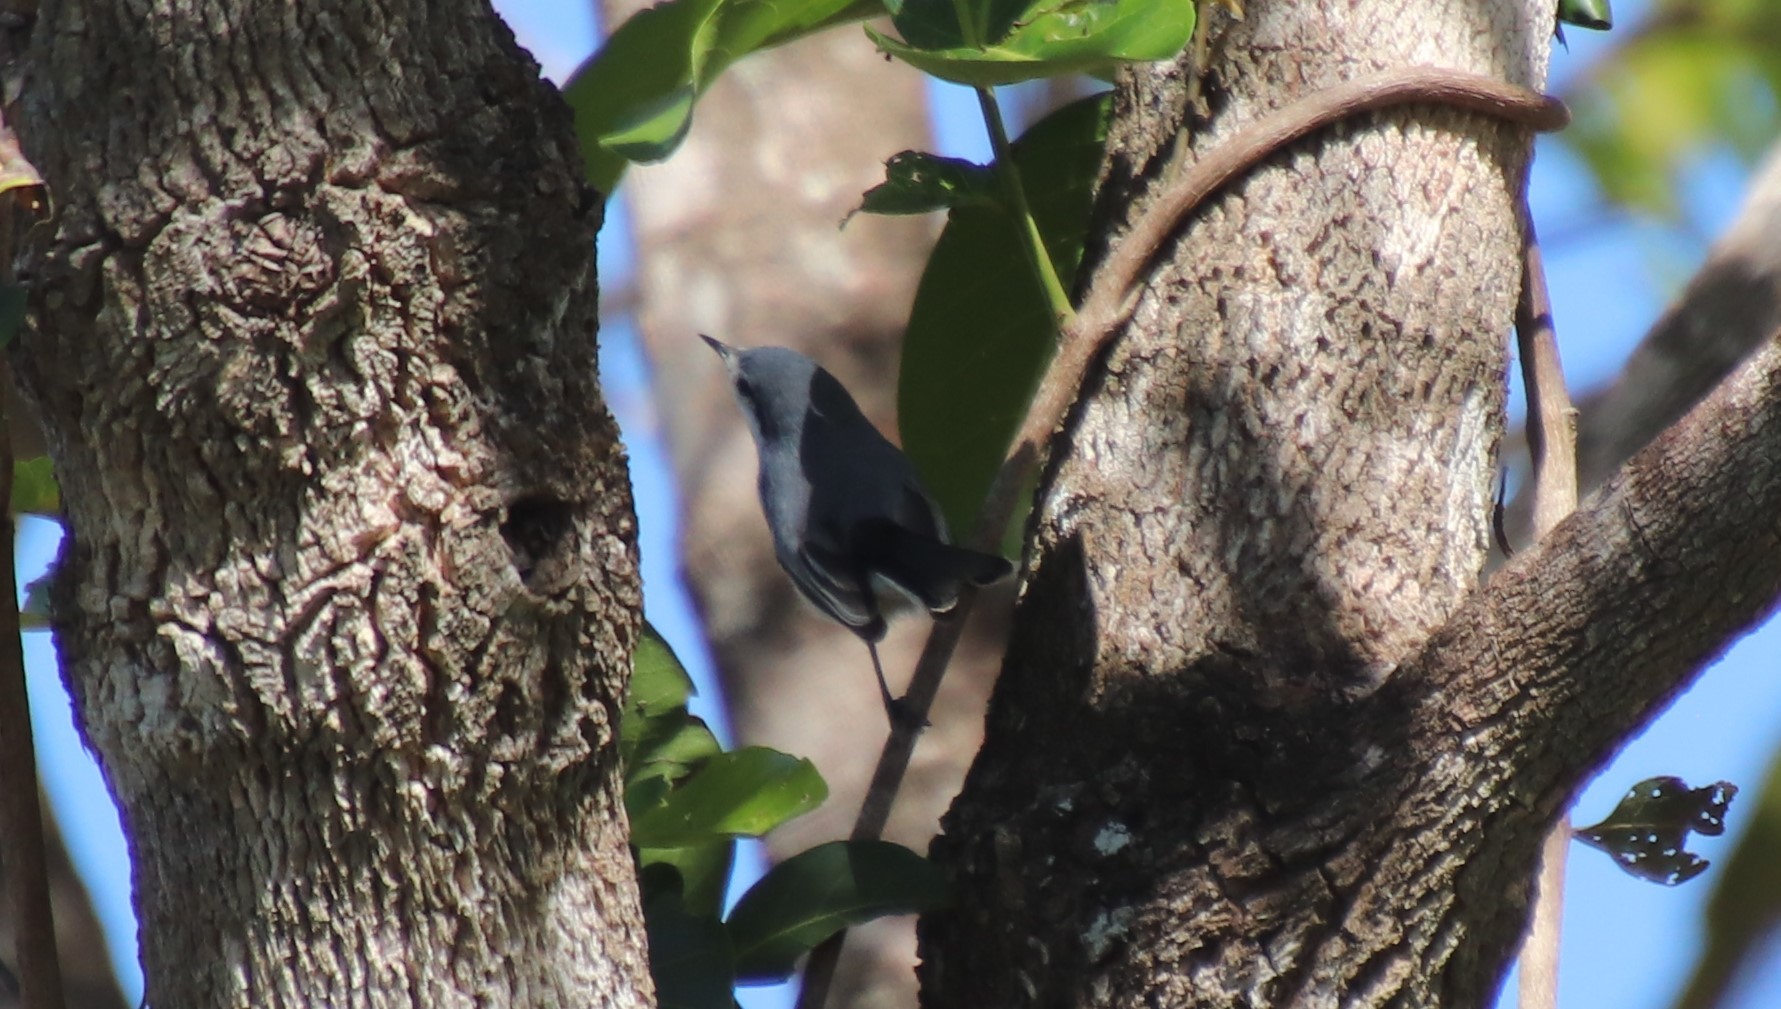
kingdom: Animalia
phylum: Chordata
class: Aves
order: Passeriformes
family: Polioptilidae
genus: Polioptila
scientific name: Polioptila dumicola
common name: Masked gnatcatcher
